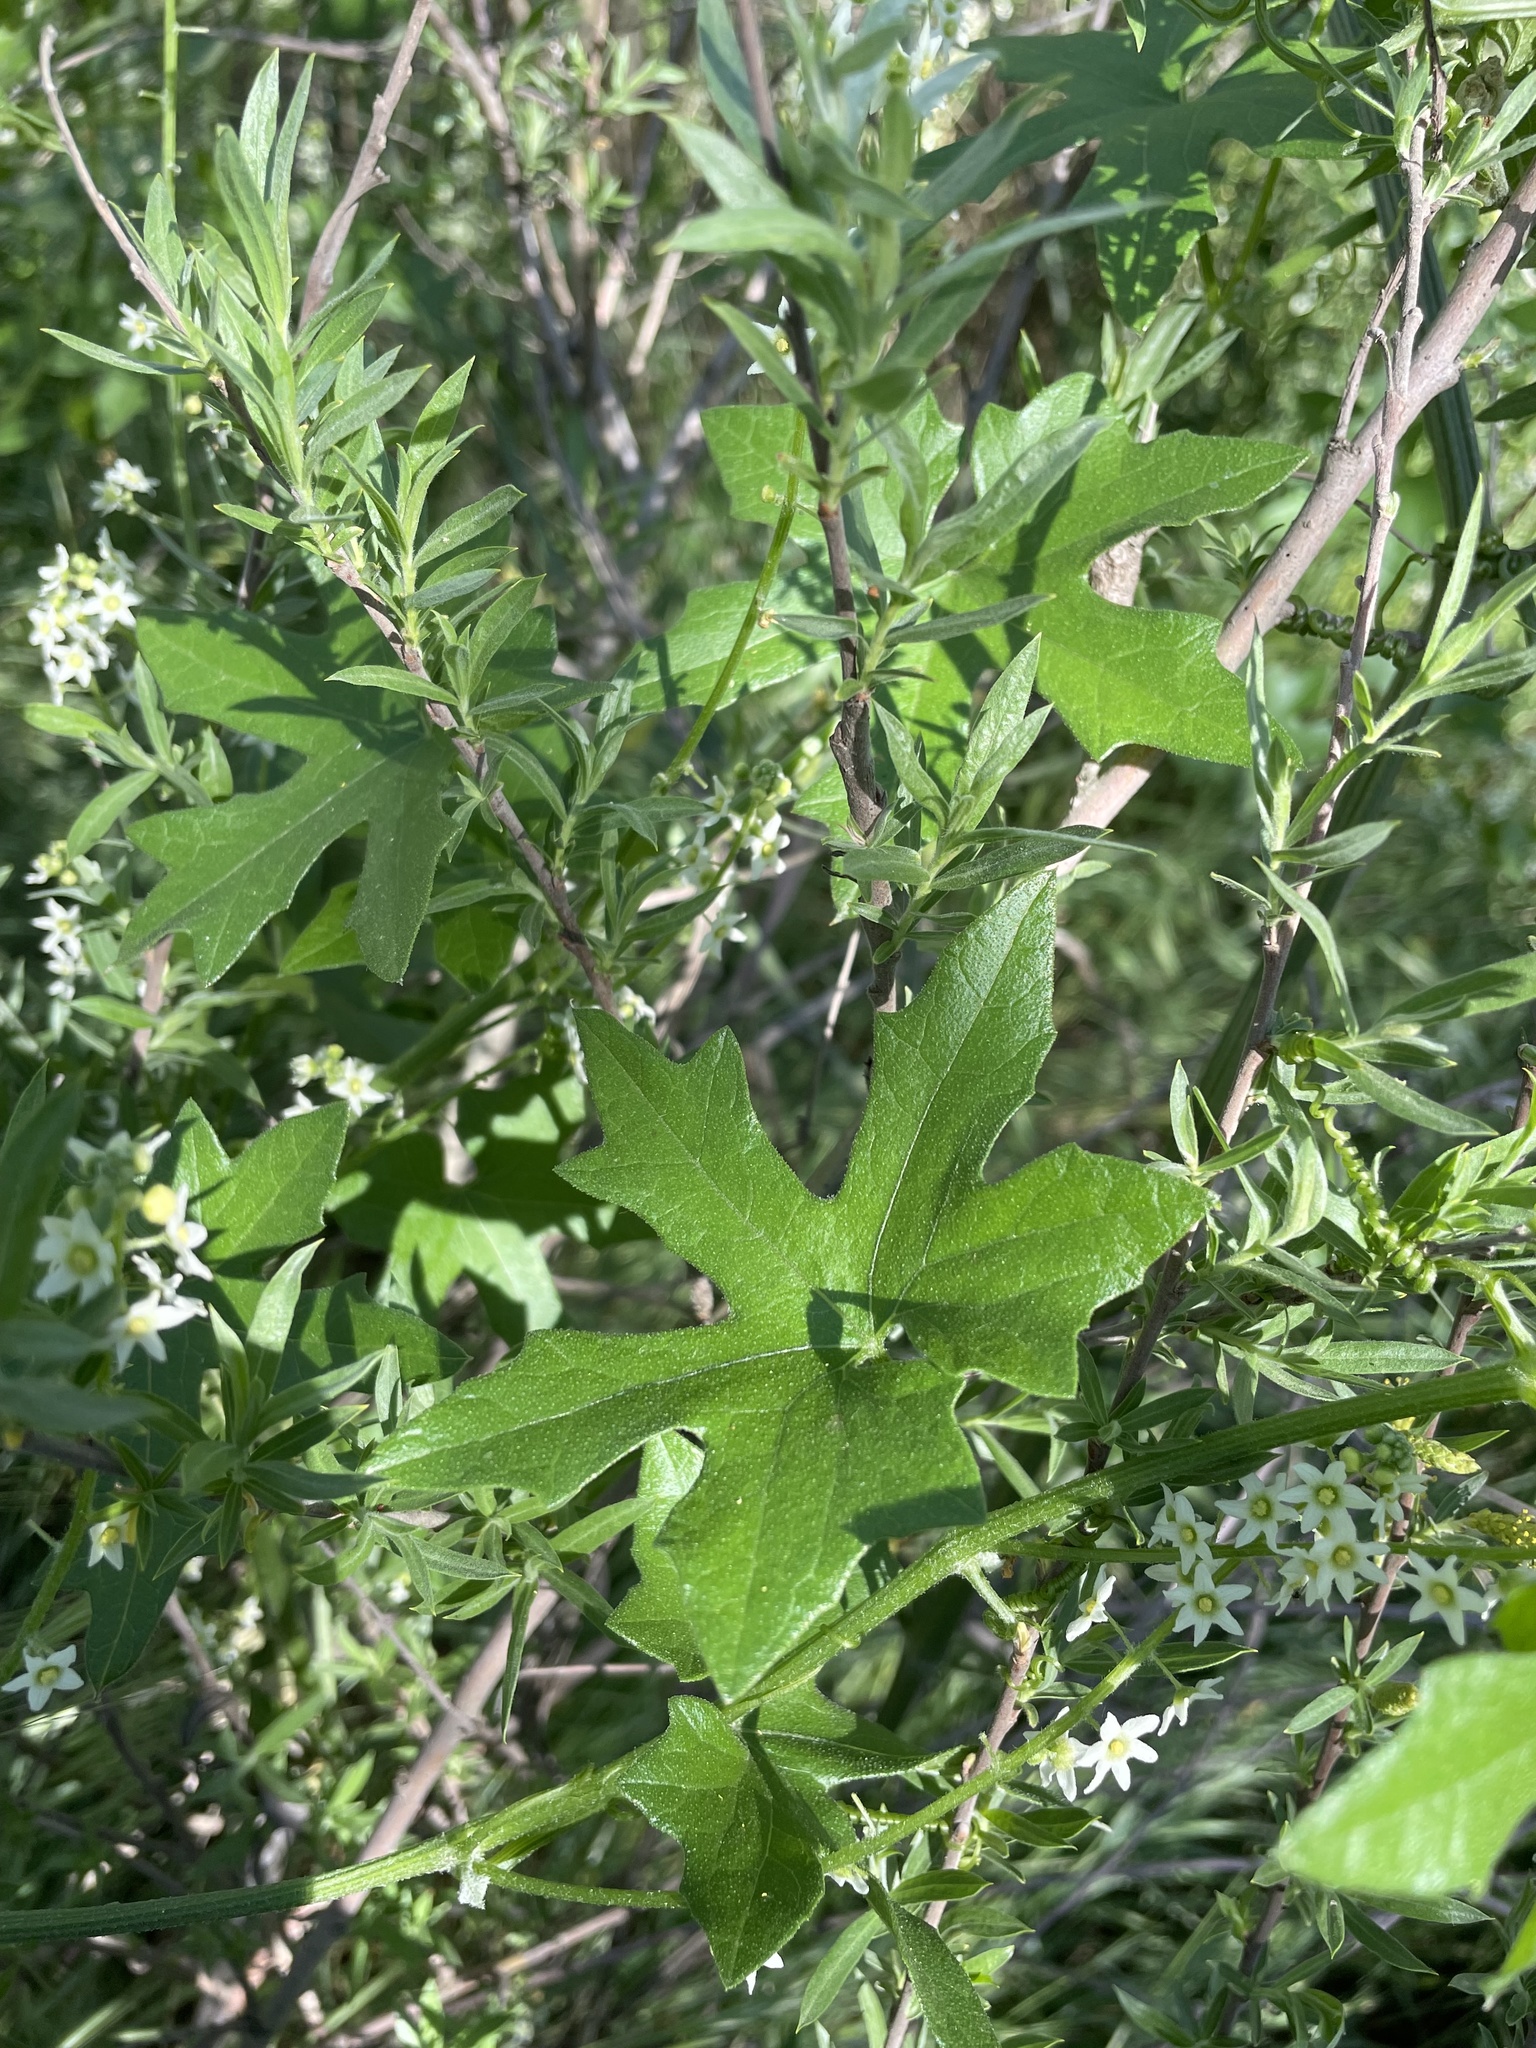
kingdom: Plantae
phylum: Tracheophyta
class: Magnoliopsida
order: Cucurbitales
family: Cucurbitaceae
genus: Marah
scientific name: Marah fabacea
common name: California manroot
